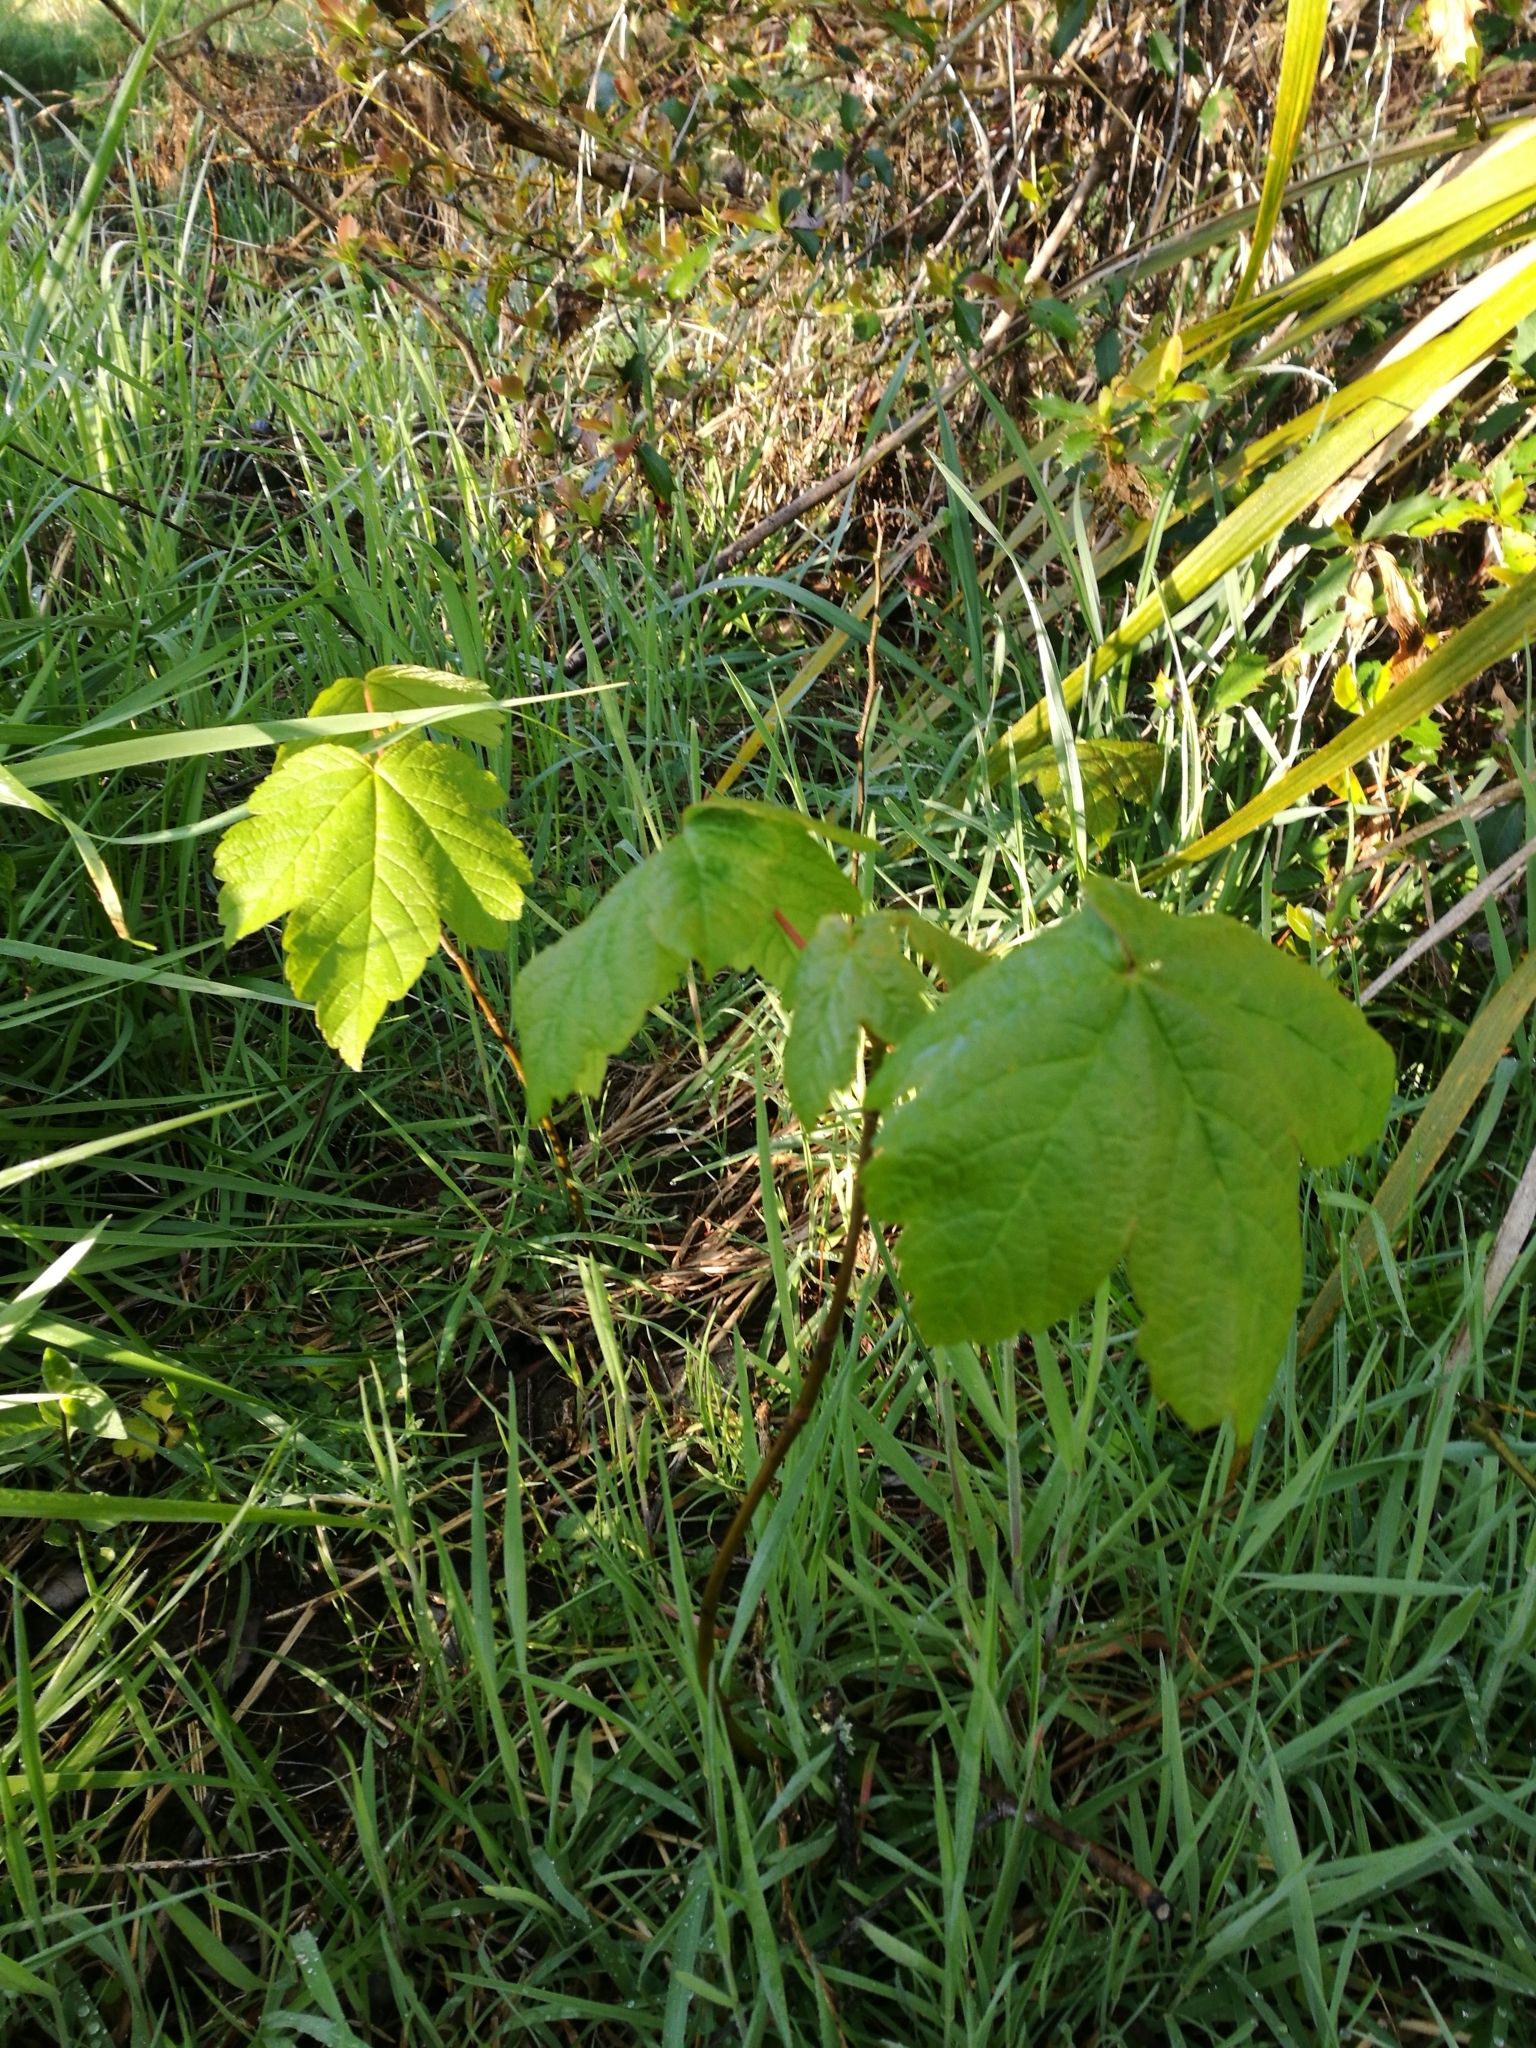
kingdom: Plantae
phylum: Tracheophyta
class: Magnoliopsida
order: Sapindales
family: Sapindaceae
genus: Acer
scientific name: Acer pseudoplatanus
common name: Sycamore
